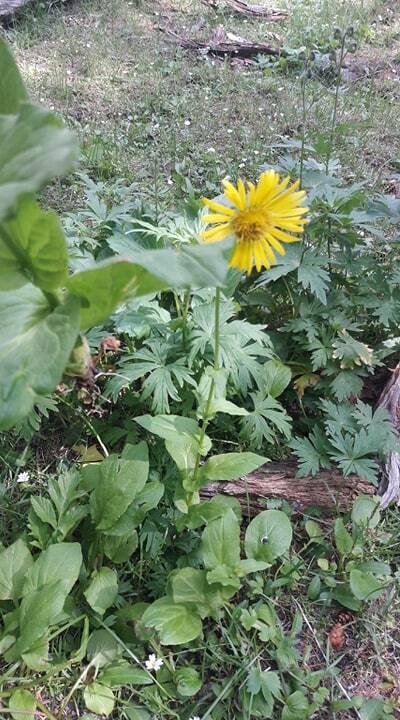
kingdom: Plantae
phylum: Tracheophyta
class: Magnoliopsida
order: Asterales
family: Asteraceae
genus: Doronicum
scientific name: Doronicum oblongifolium
